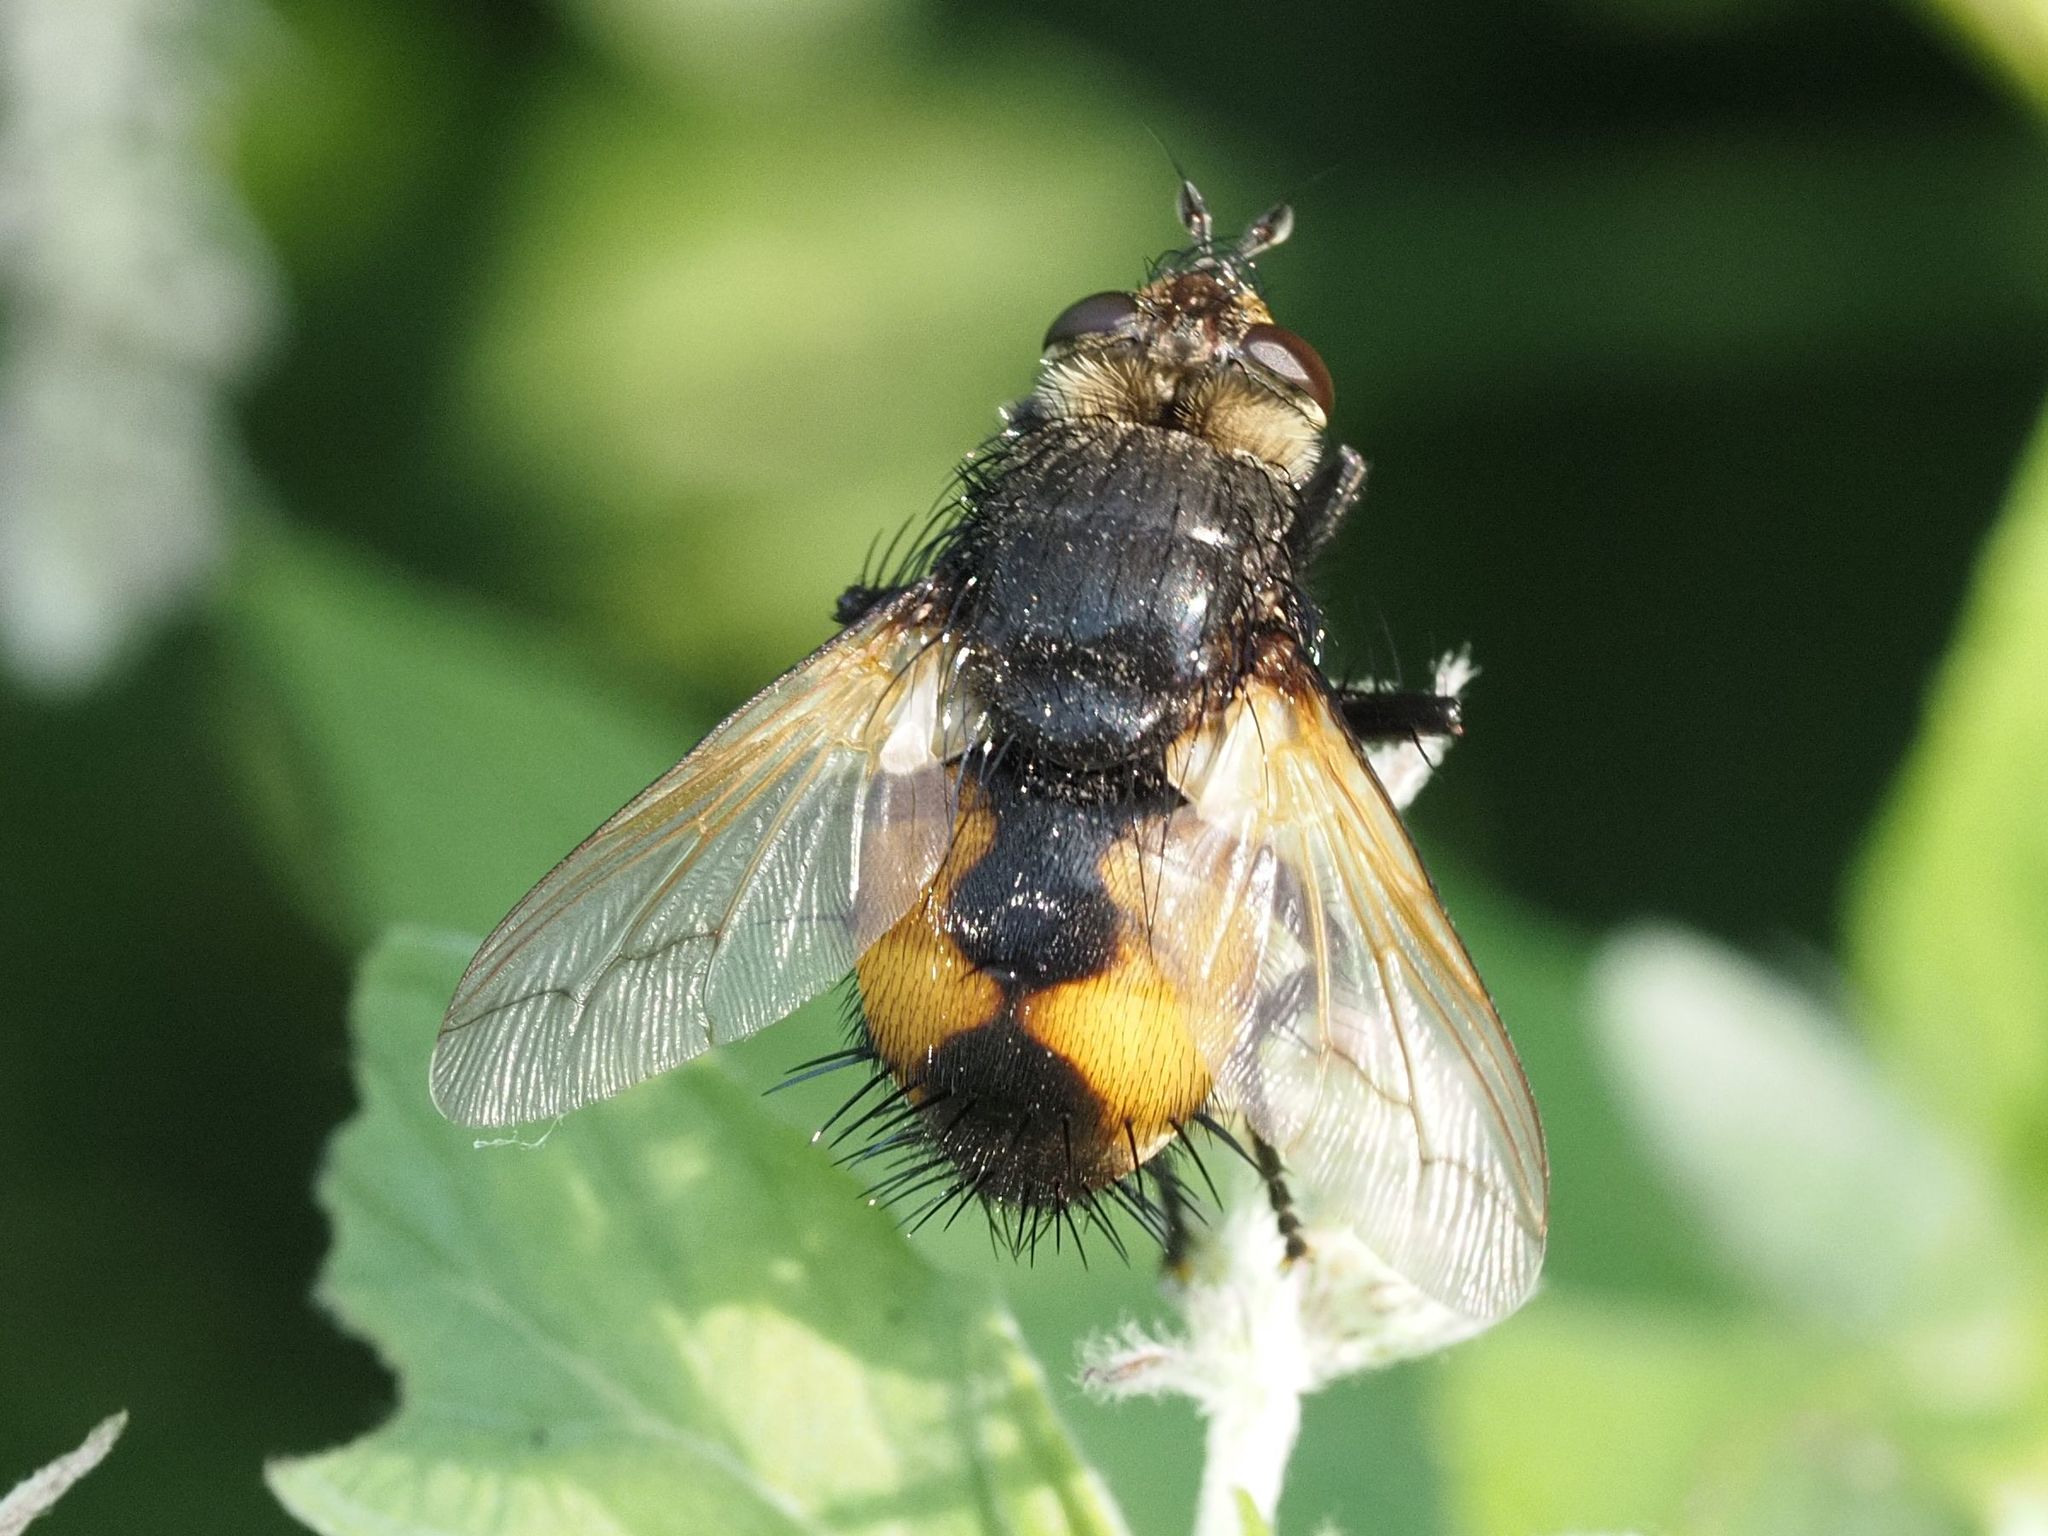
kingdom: Animalia
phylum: Arthropoda
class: Insecta
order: Diptera
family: Tachinidae
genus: Nowickia
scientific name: Nowickia ferox
